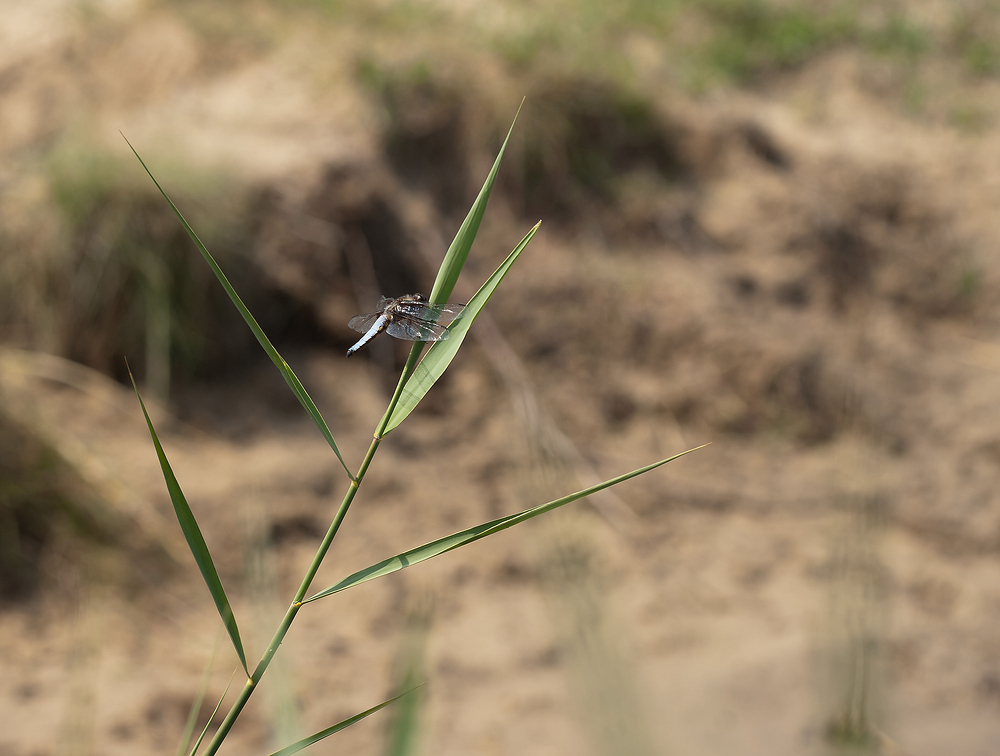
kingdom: Animalia
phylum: Arthropoda
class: Insecta
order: Odonata
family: Libellulidae
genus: Libellula
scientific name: Libellula depressa
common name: Broad-bodied chaser
